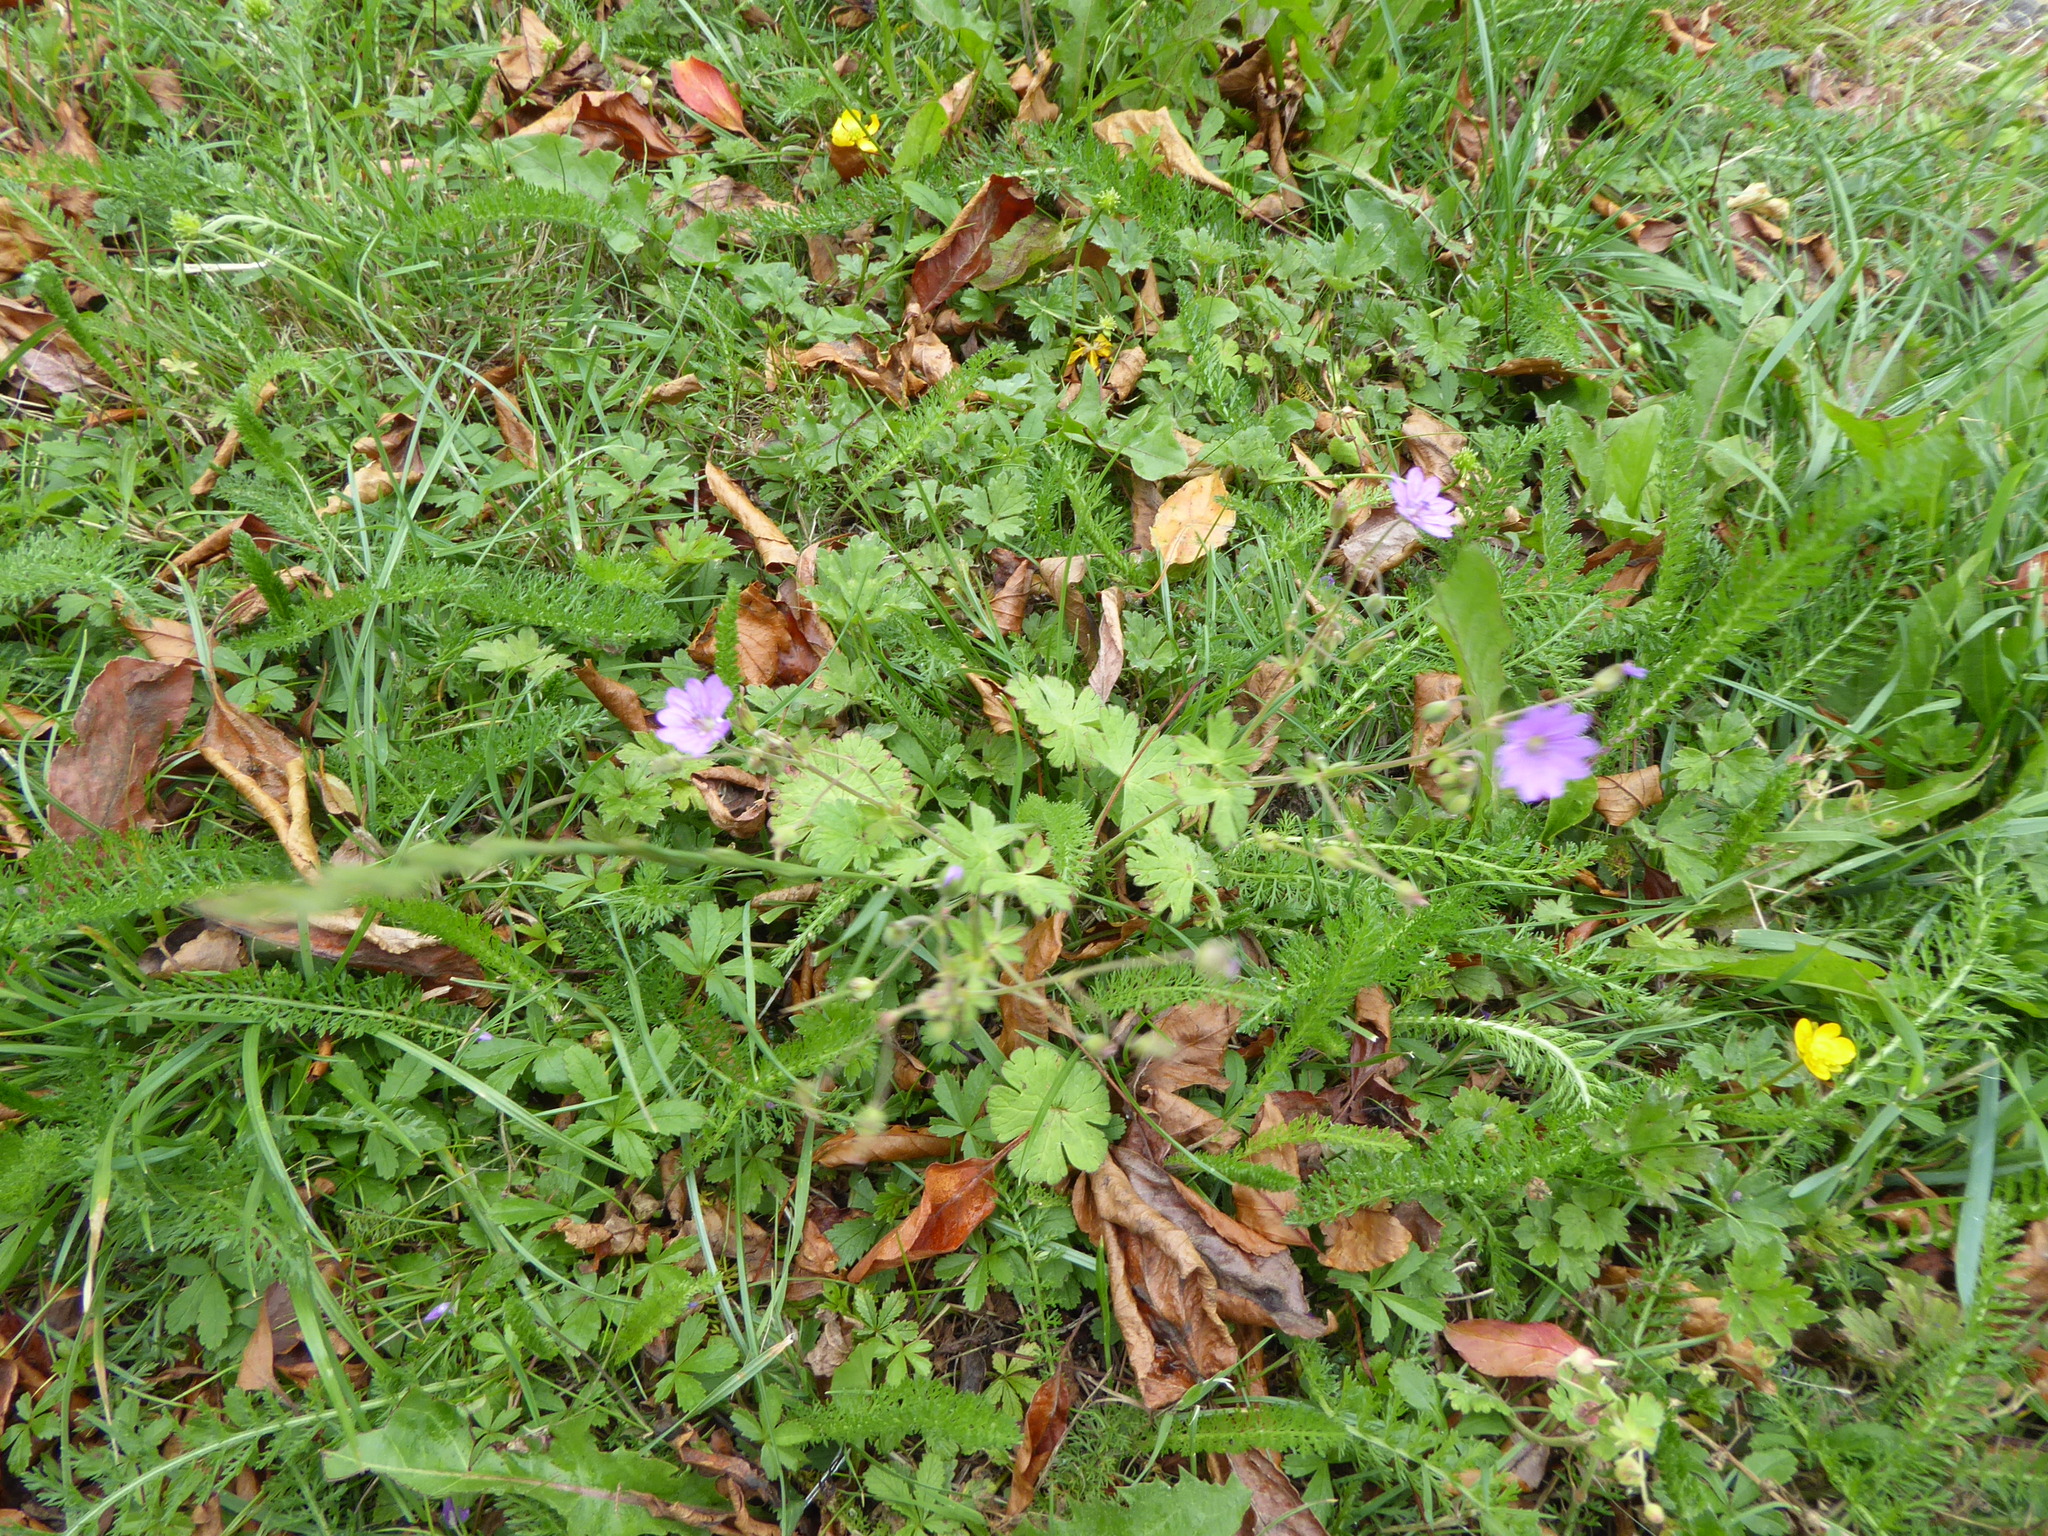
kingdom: Plantae
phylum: Tracheophyta
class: Magnoliopsida
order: Geraniales
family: Geraniaceae
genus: Geranium
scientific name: Geranium pyrenaicum
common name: Hedgerow crane's-bill
